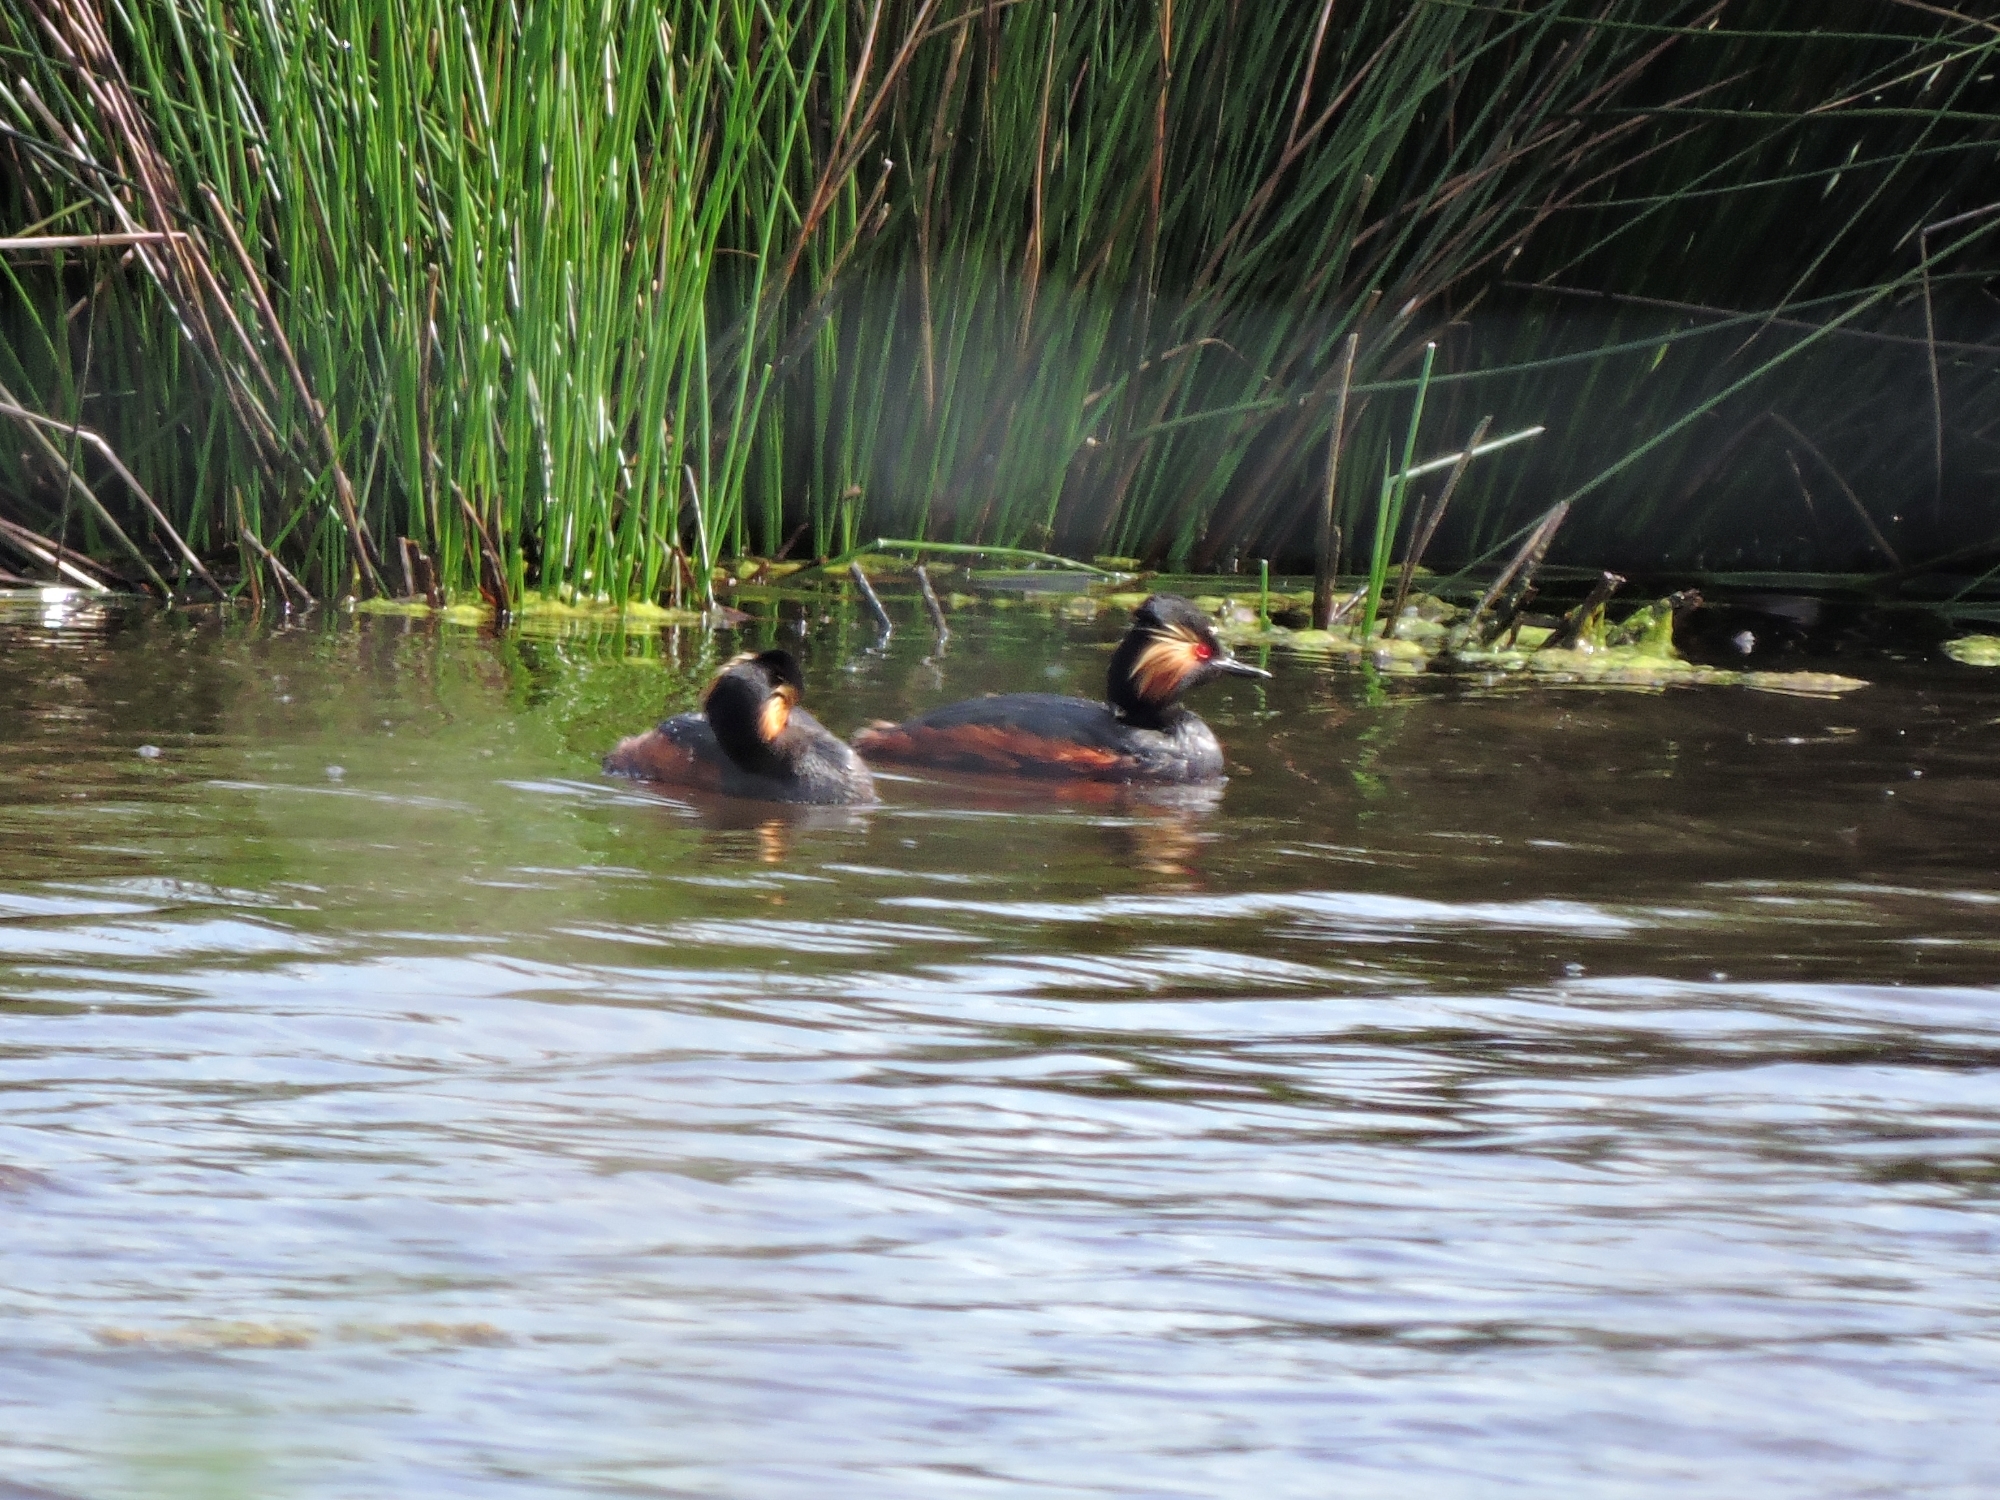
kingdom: Animalia
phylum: Chordata
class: Aves
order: Podicipediformes
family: Podicipedidae
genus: Podiceps
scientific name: Podiceps nigricollis
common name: Black-necked grebe
